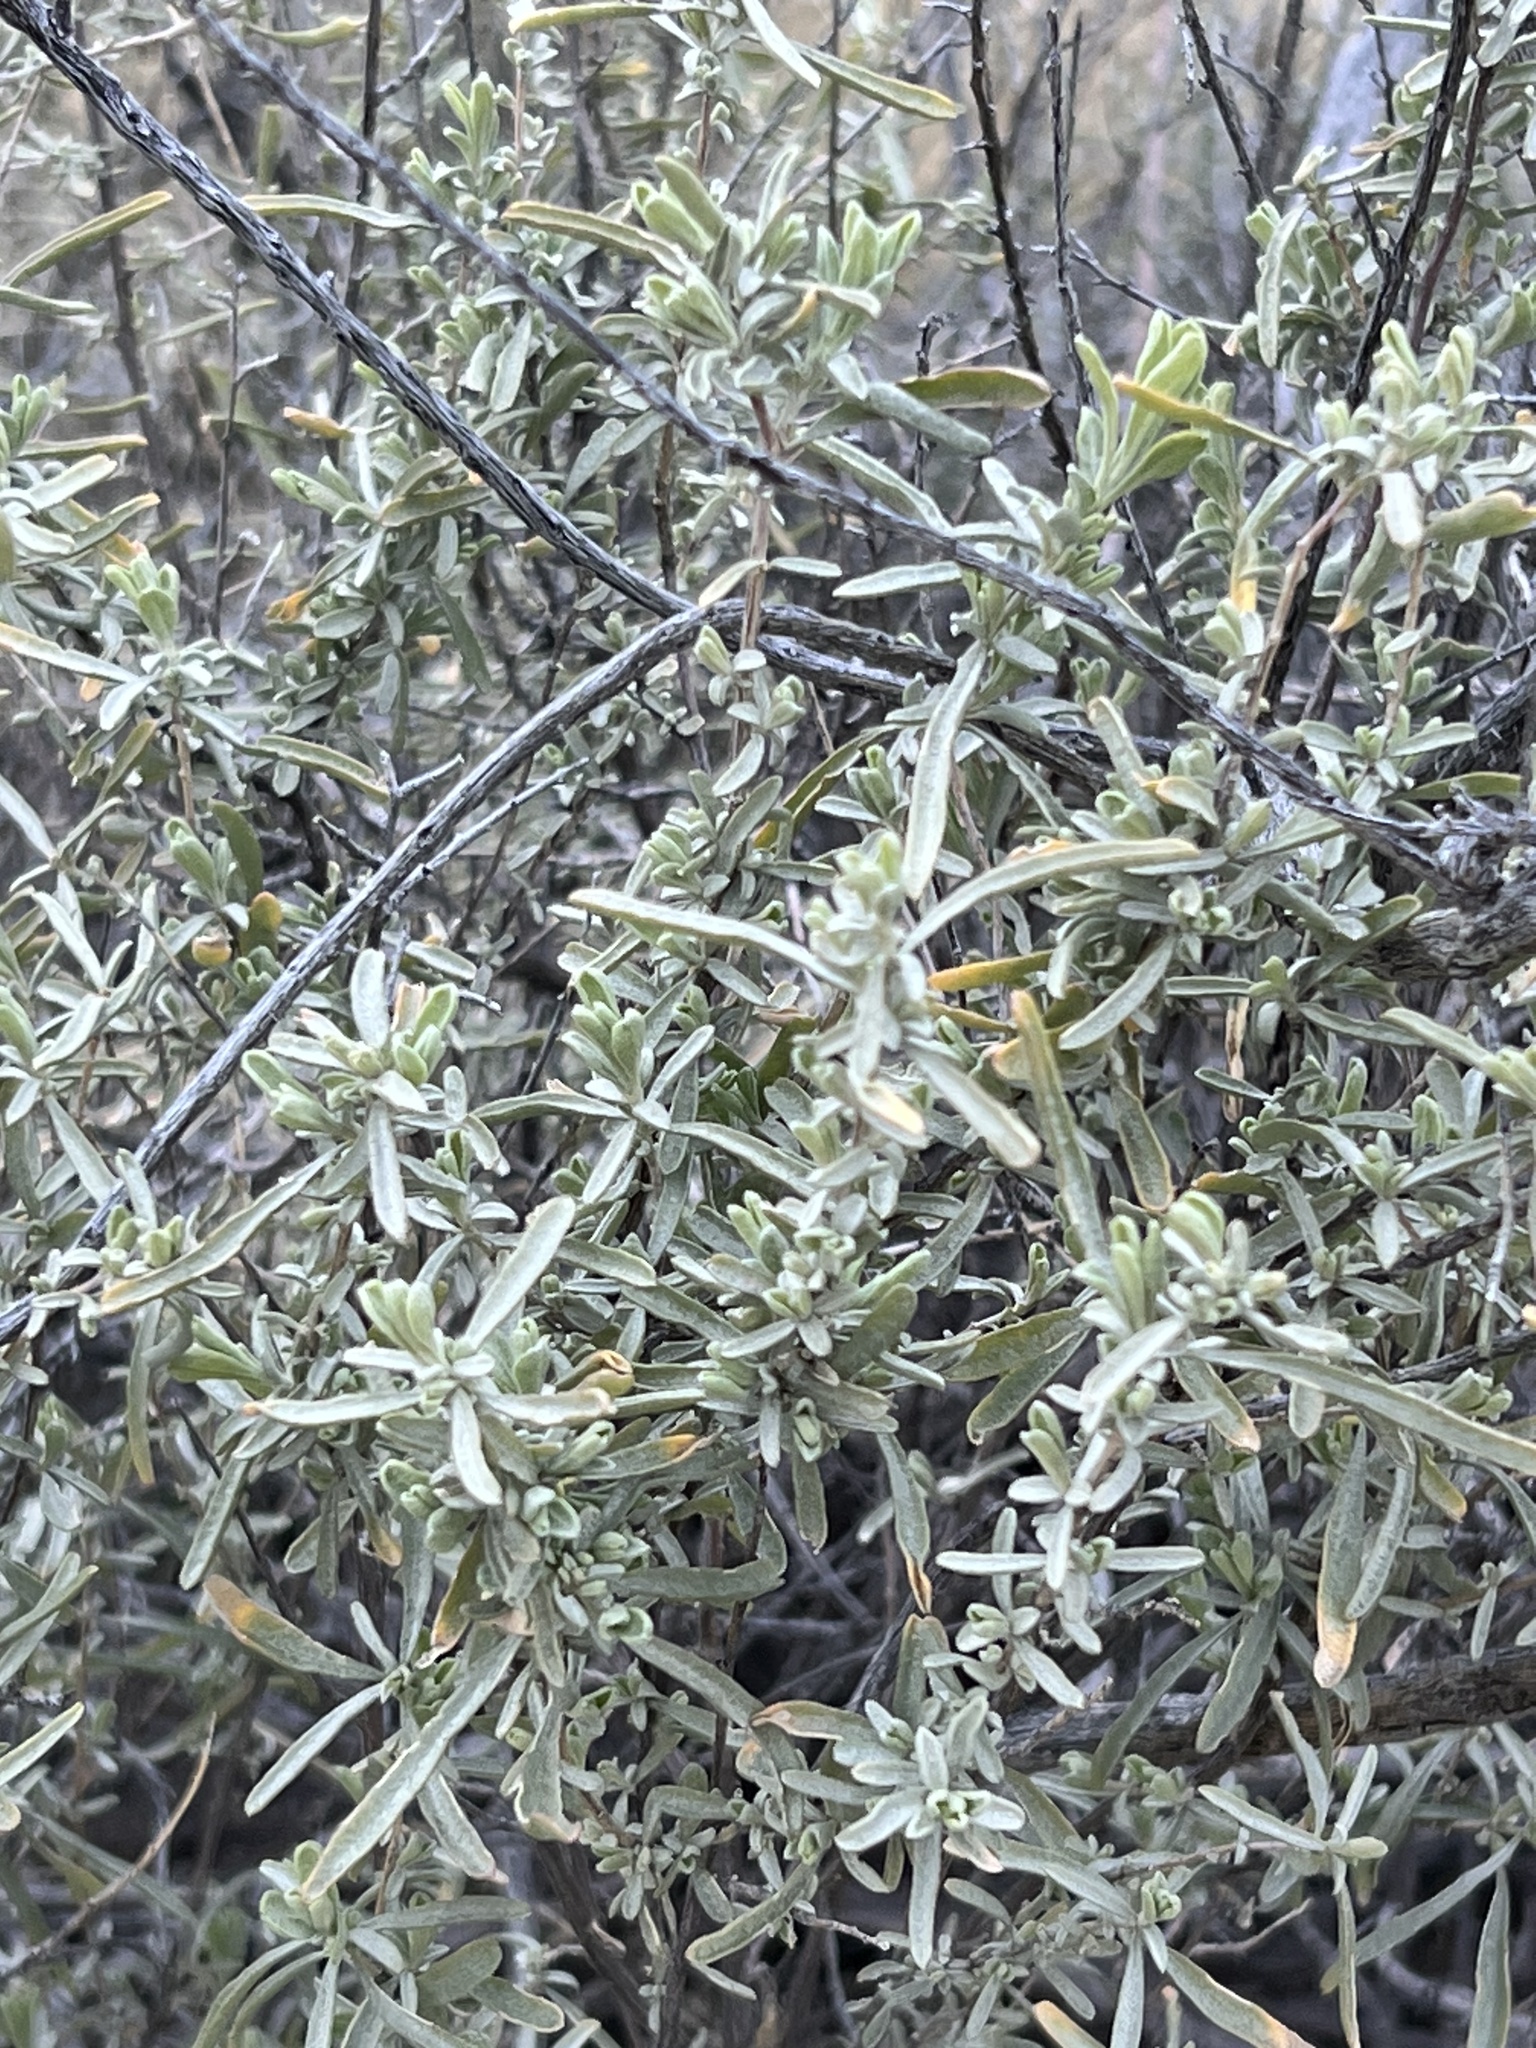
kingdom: Plantae
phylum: Tracheophyta
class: Magnoliopsida
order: Caryophyllales
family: Amaranthaceae
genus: Atriplex
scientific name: Atriplex canescens
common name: Four-wing saltbush
